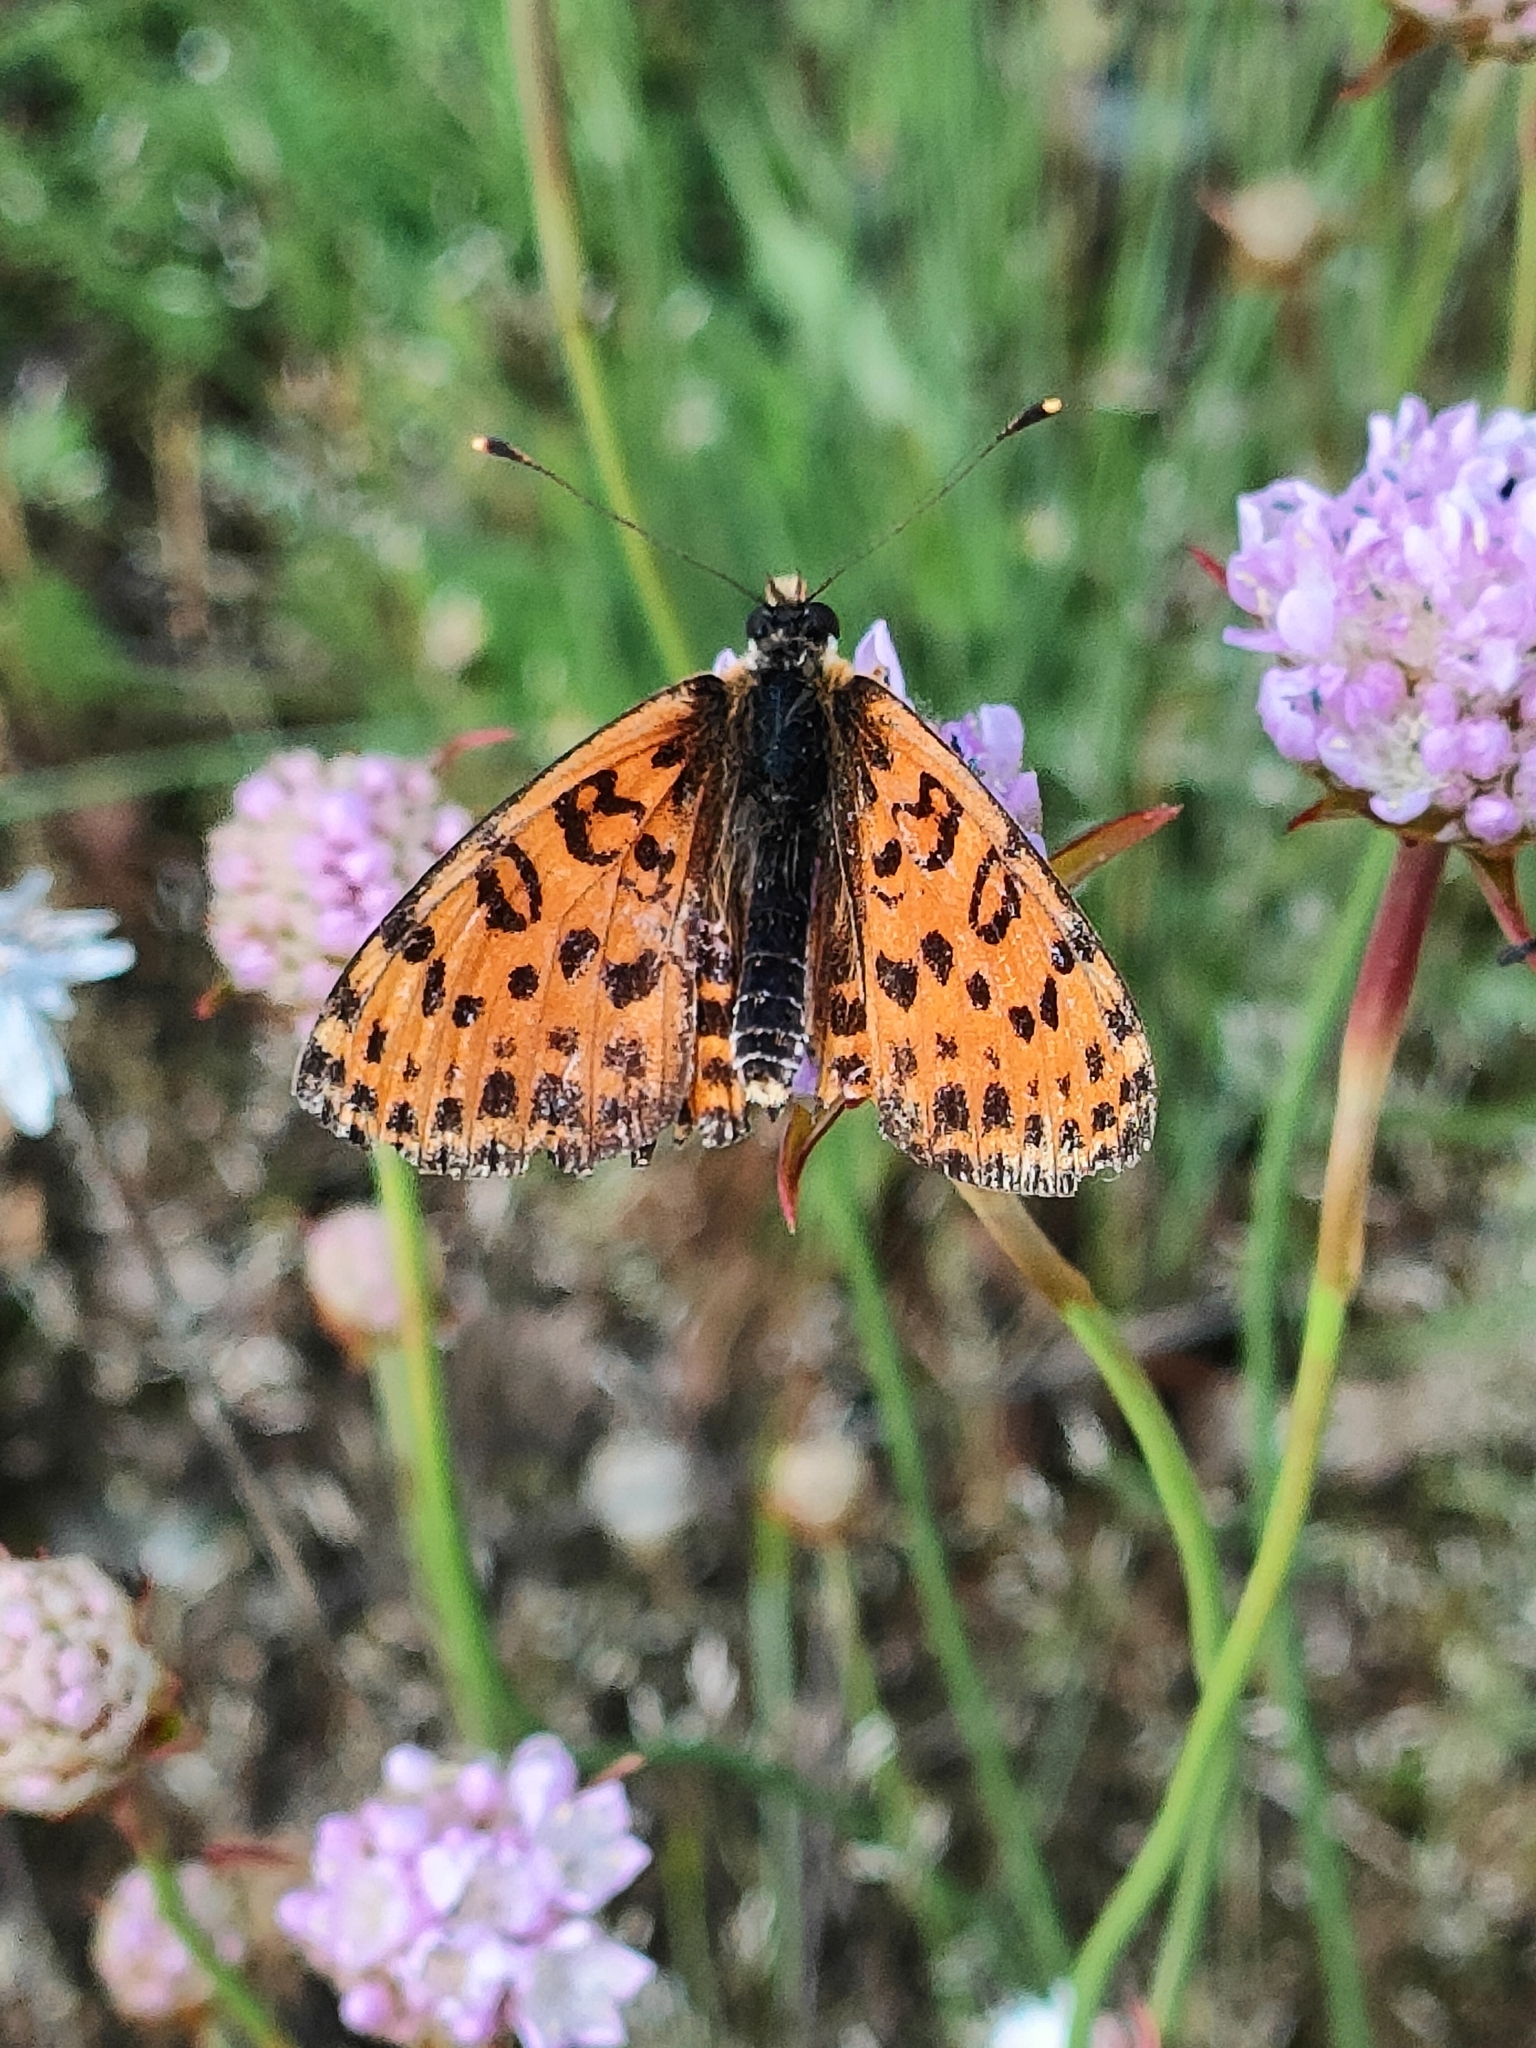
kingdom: Animalia
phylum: Arthropoda
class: Insecta
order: Lepidoptera
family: Nymphalidae
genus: Melitaea
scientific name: Melitaea didyma
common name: Spotted fritillary
